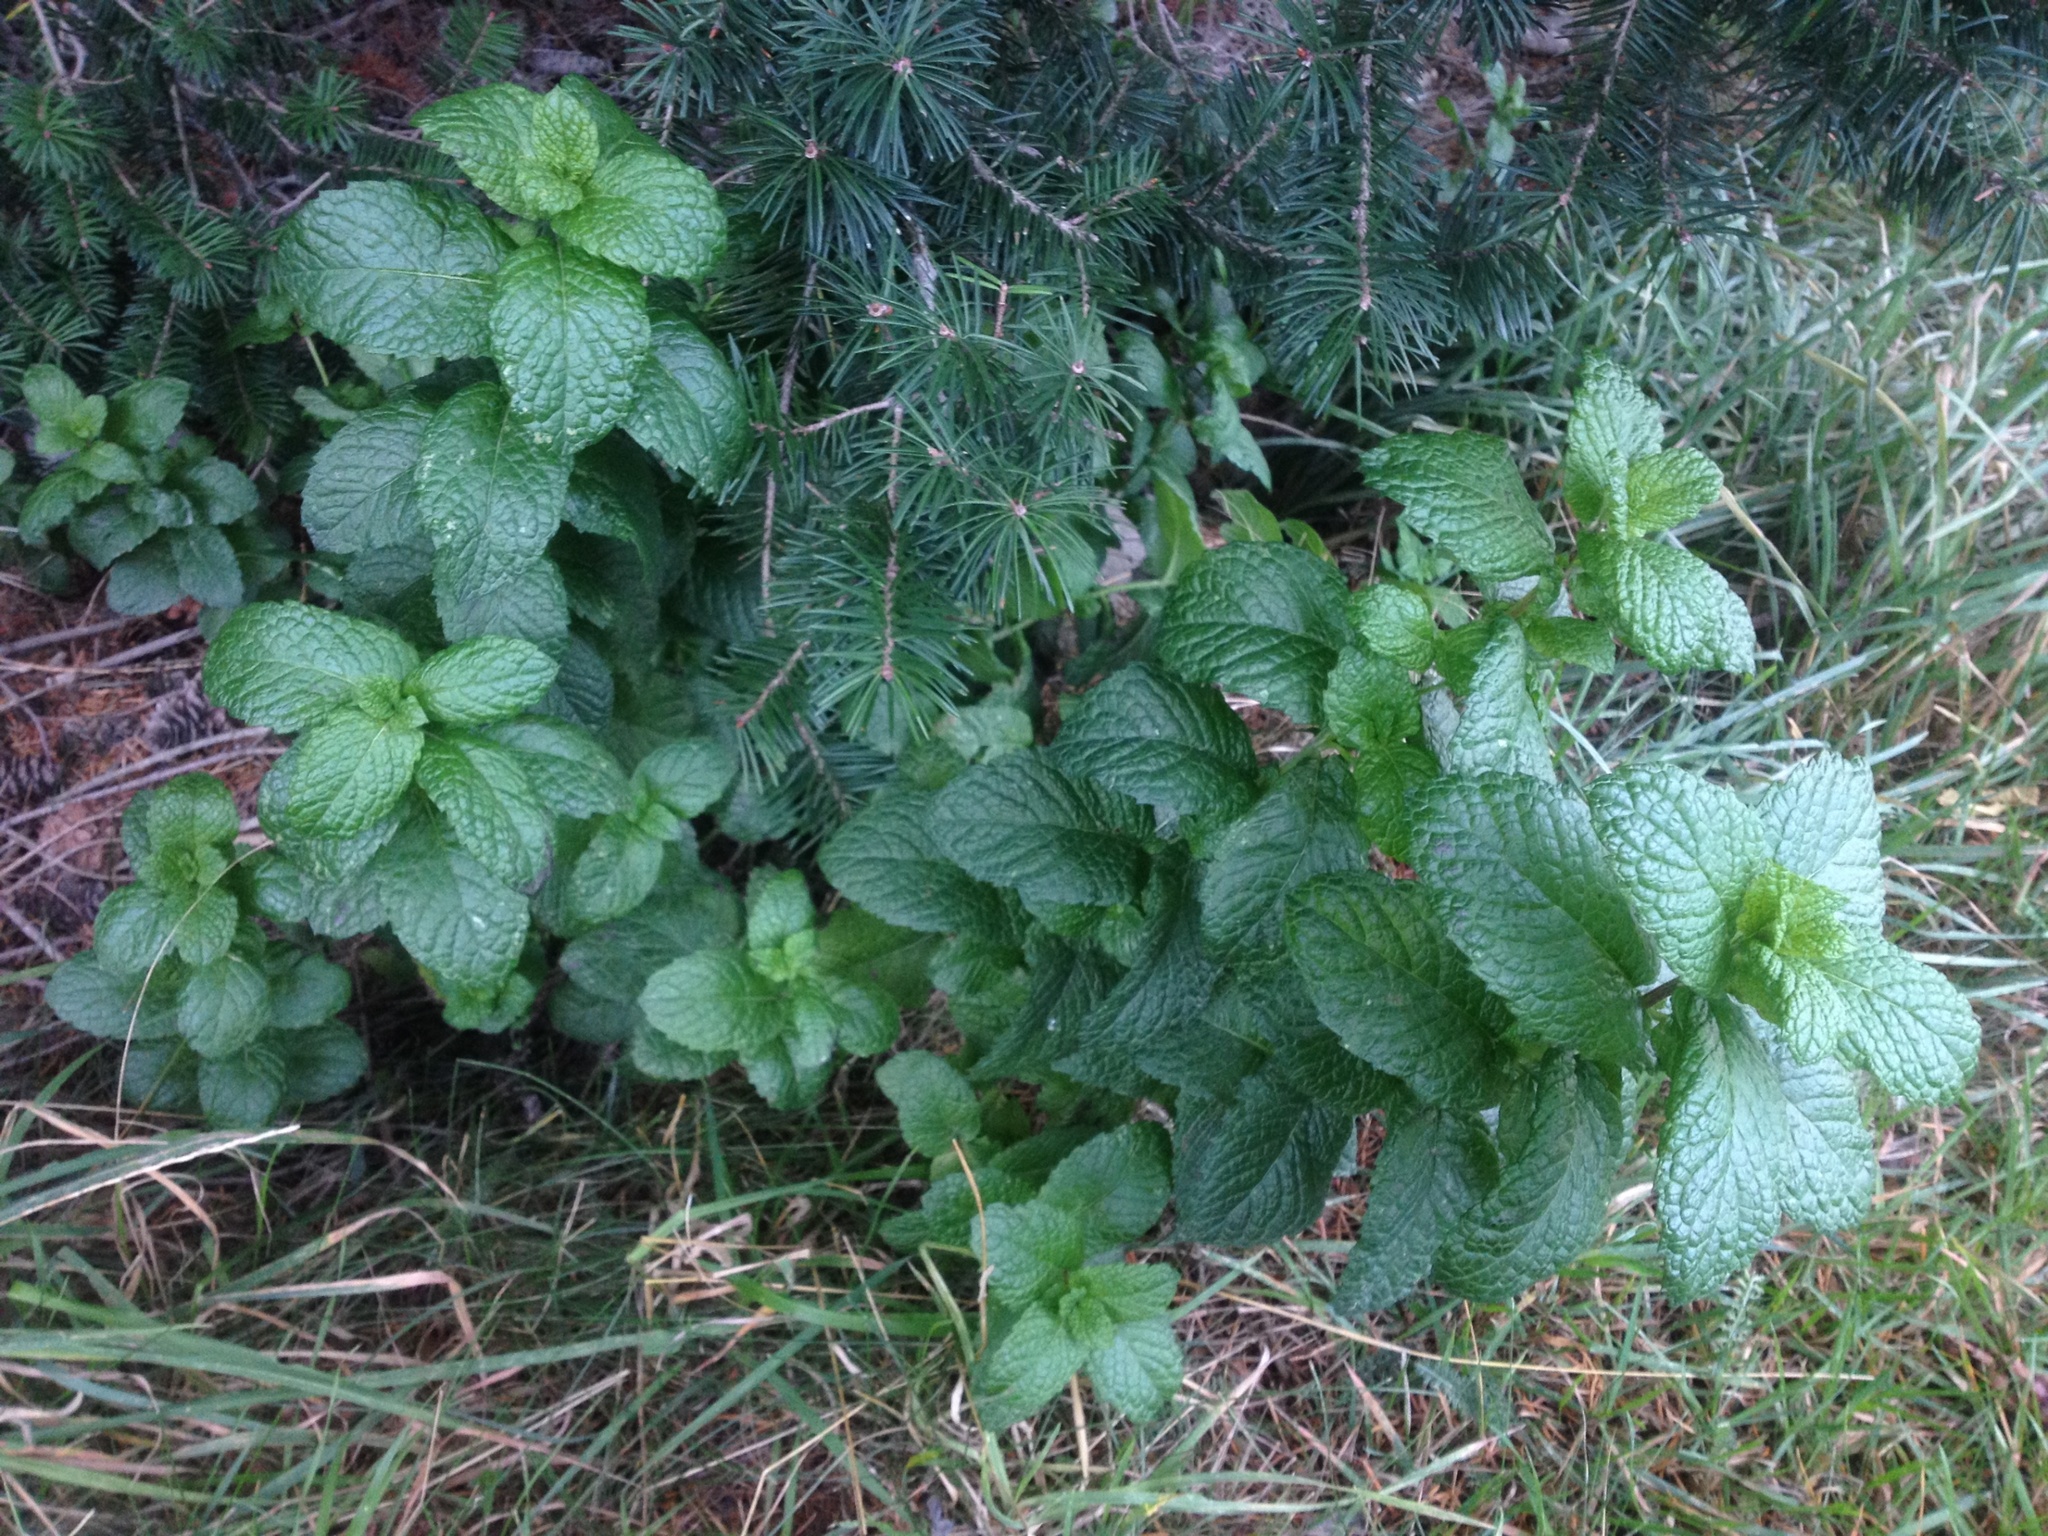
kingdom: Plantae
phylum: Tracheophyta
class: Magnoliopsida
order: Lamiales
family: Lamiaceae
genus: Mentha
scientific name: Mentha suaveolens
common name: Apple mint
